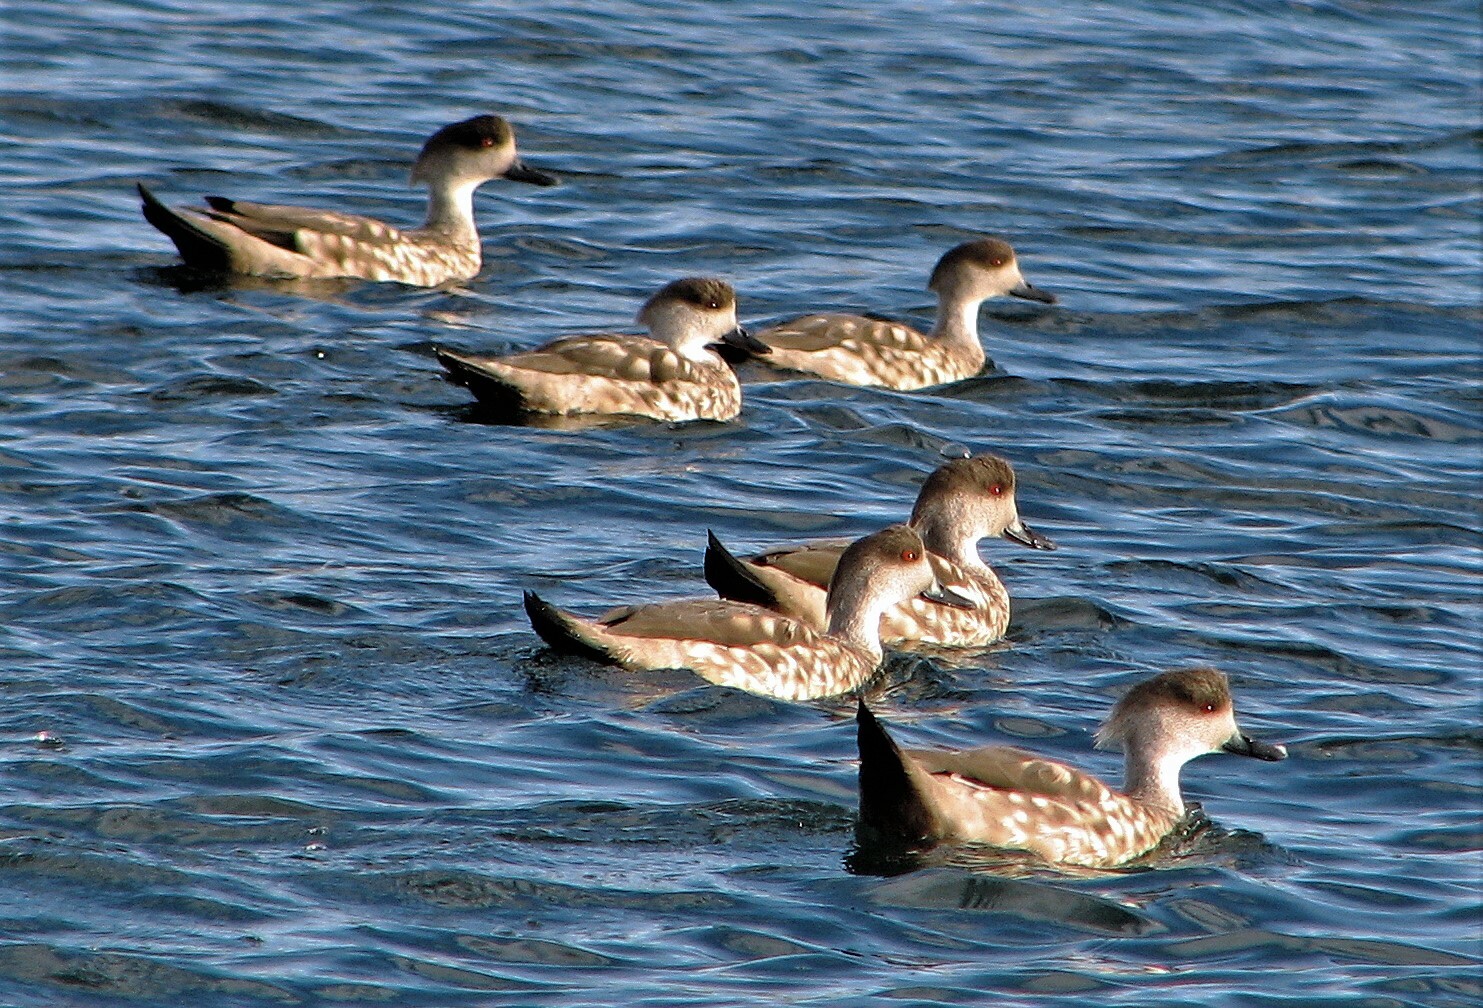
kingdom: Animalia
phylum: Chordata
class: Aves
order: Anseriformes
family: Anatidae
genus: Lophonetta
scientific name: Lophonetta specularioides
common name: Crested duck
